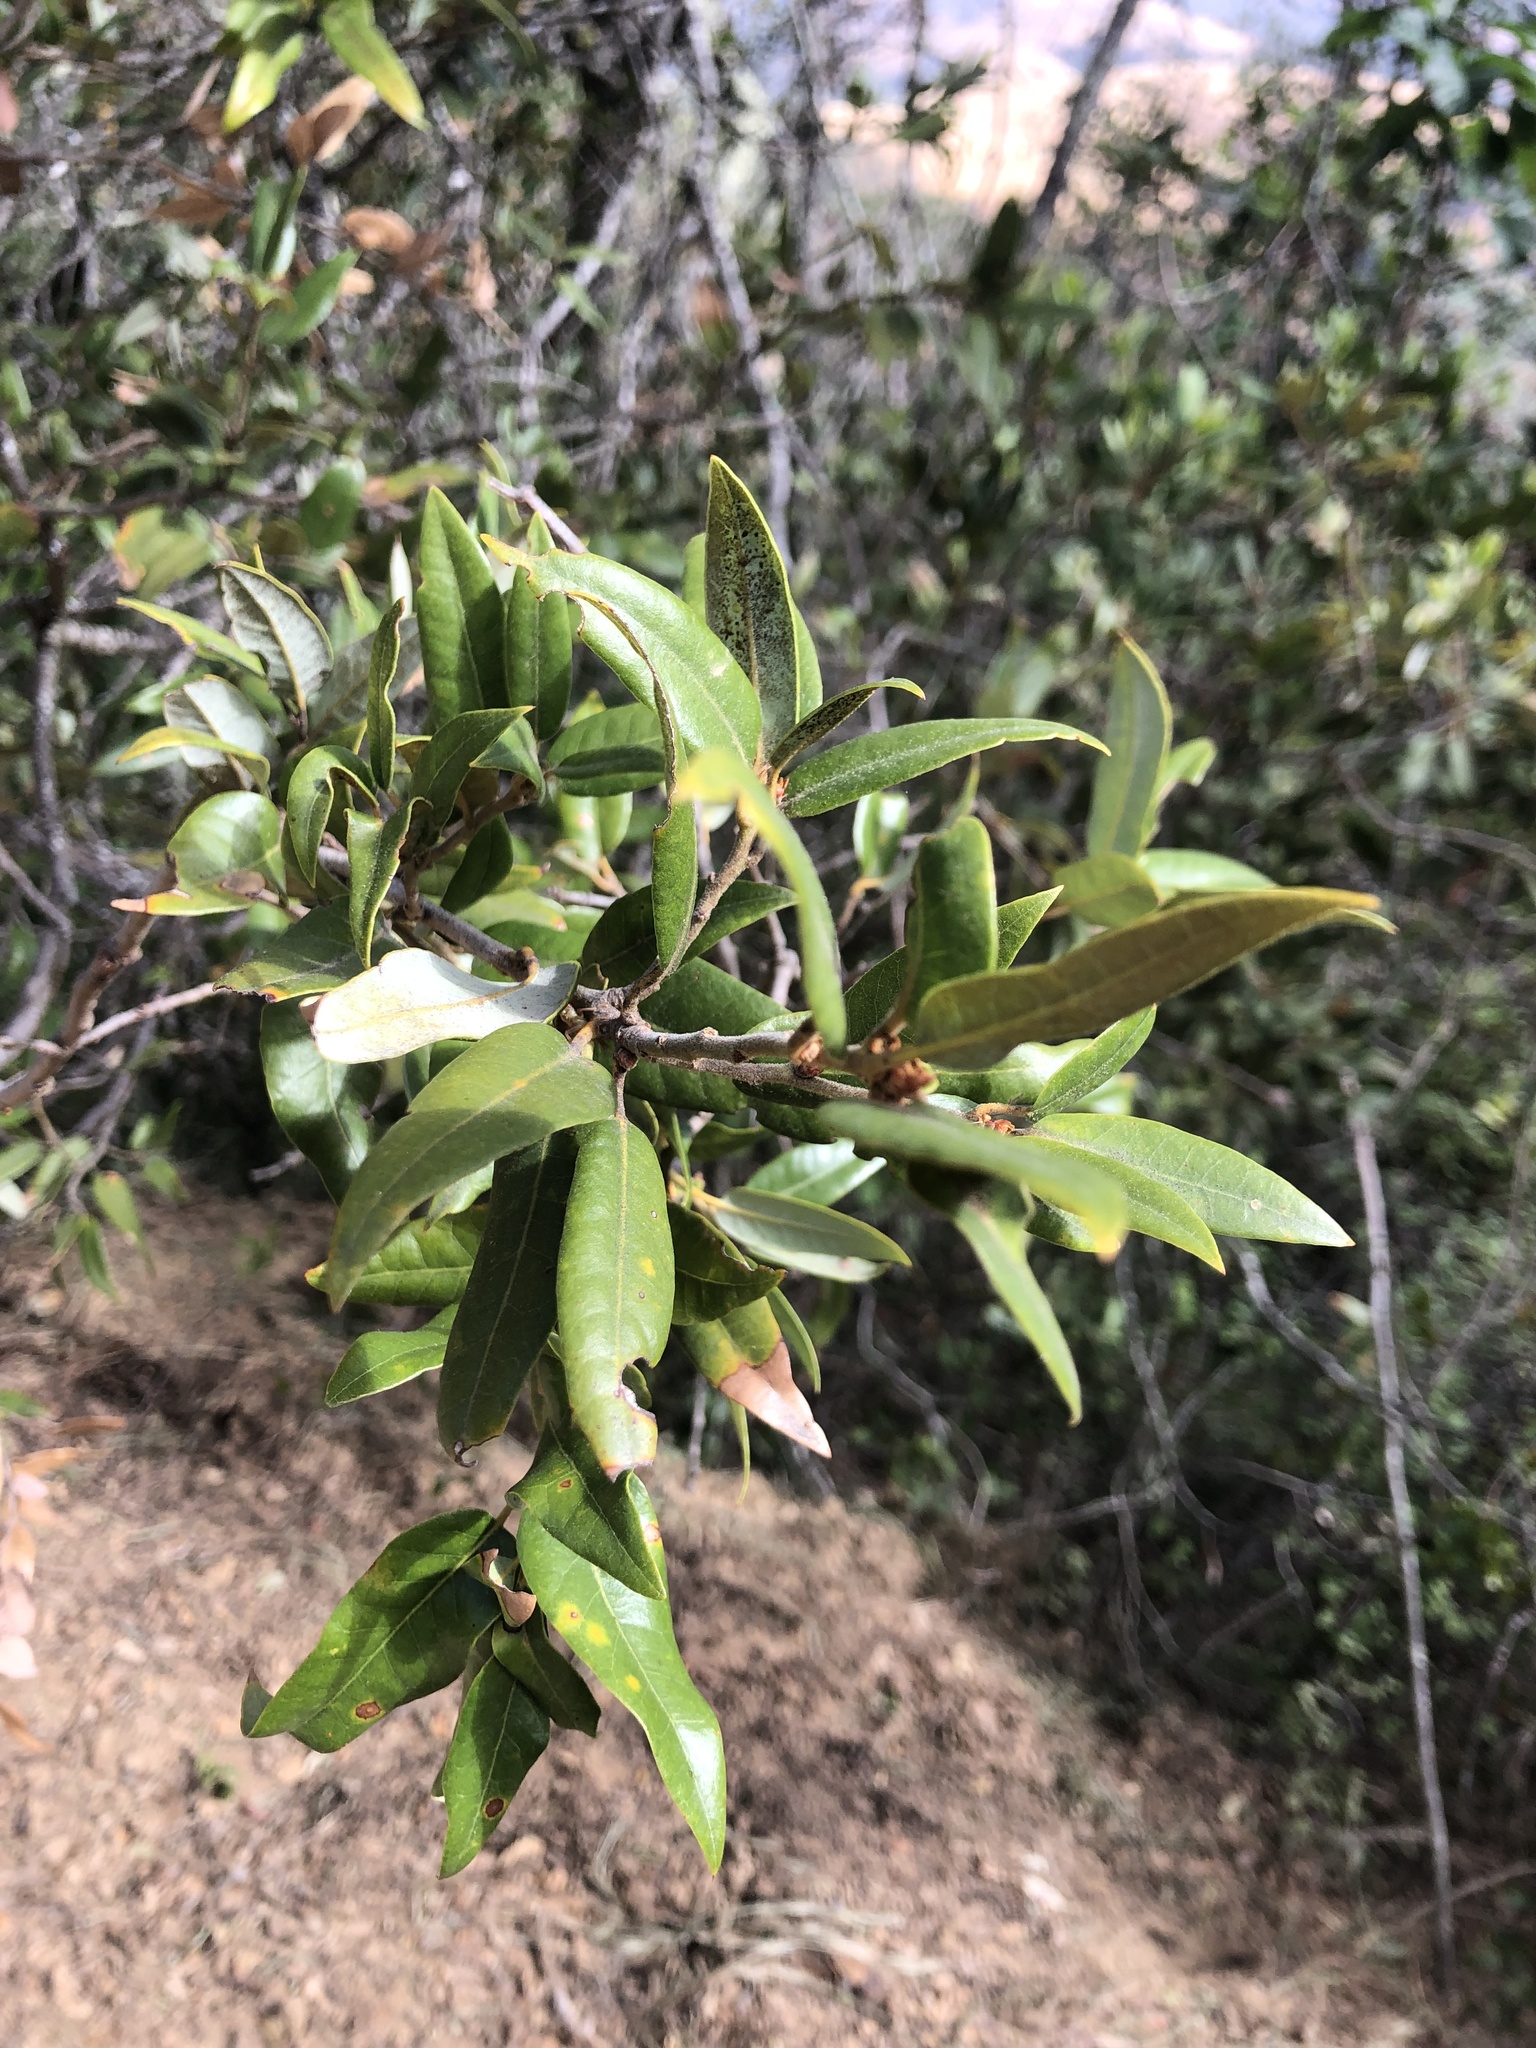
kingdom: Plantae
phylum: Tracheophyta
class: Magnoliopsida
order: Fagales
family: Fagaceae
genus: Quercus
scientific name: Quercus chrysolepis
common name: Canyon live oak
